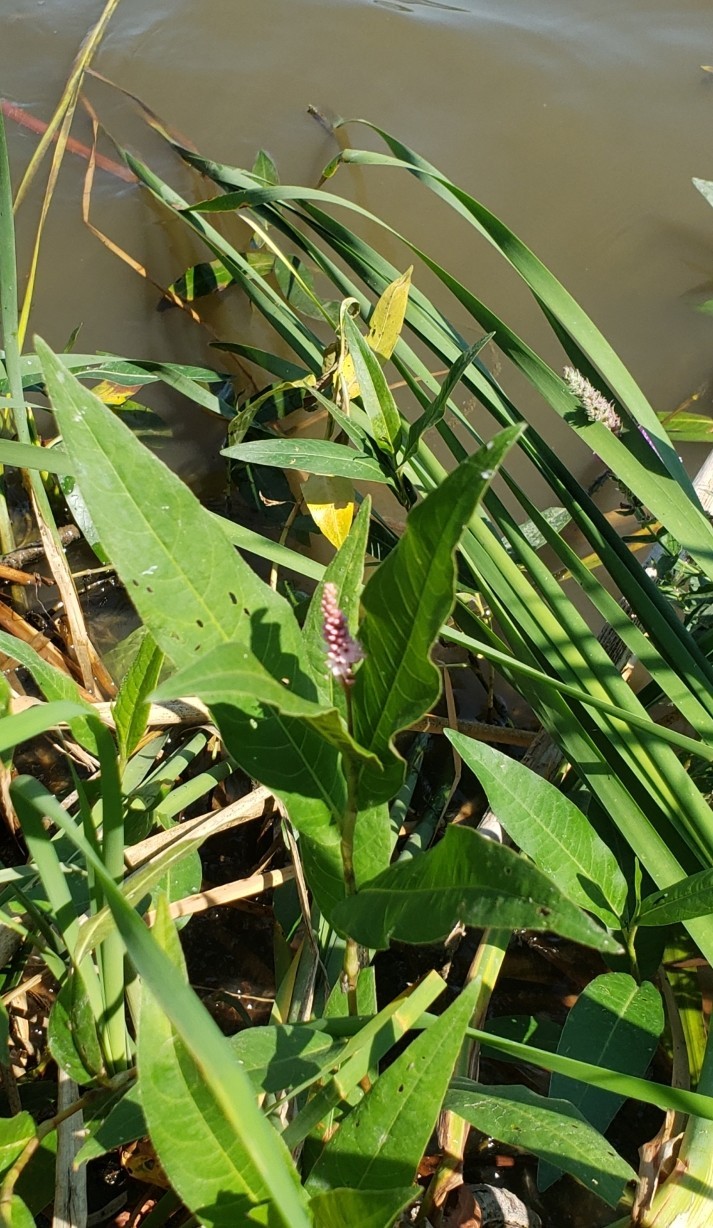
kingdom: Plantae
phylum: Tracheophyta
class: Magnoliopsida
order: Caryophyllales
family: Polygonaceae
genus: Persicaria
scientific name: Persicaria amphibia
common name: Amphibious bistort
